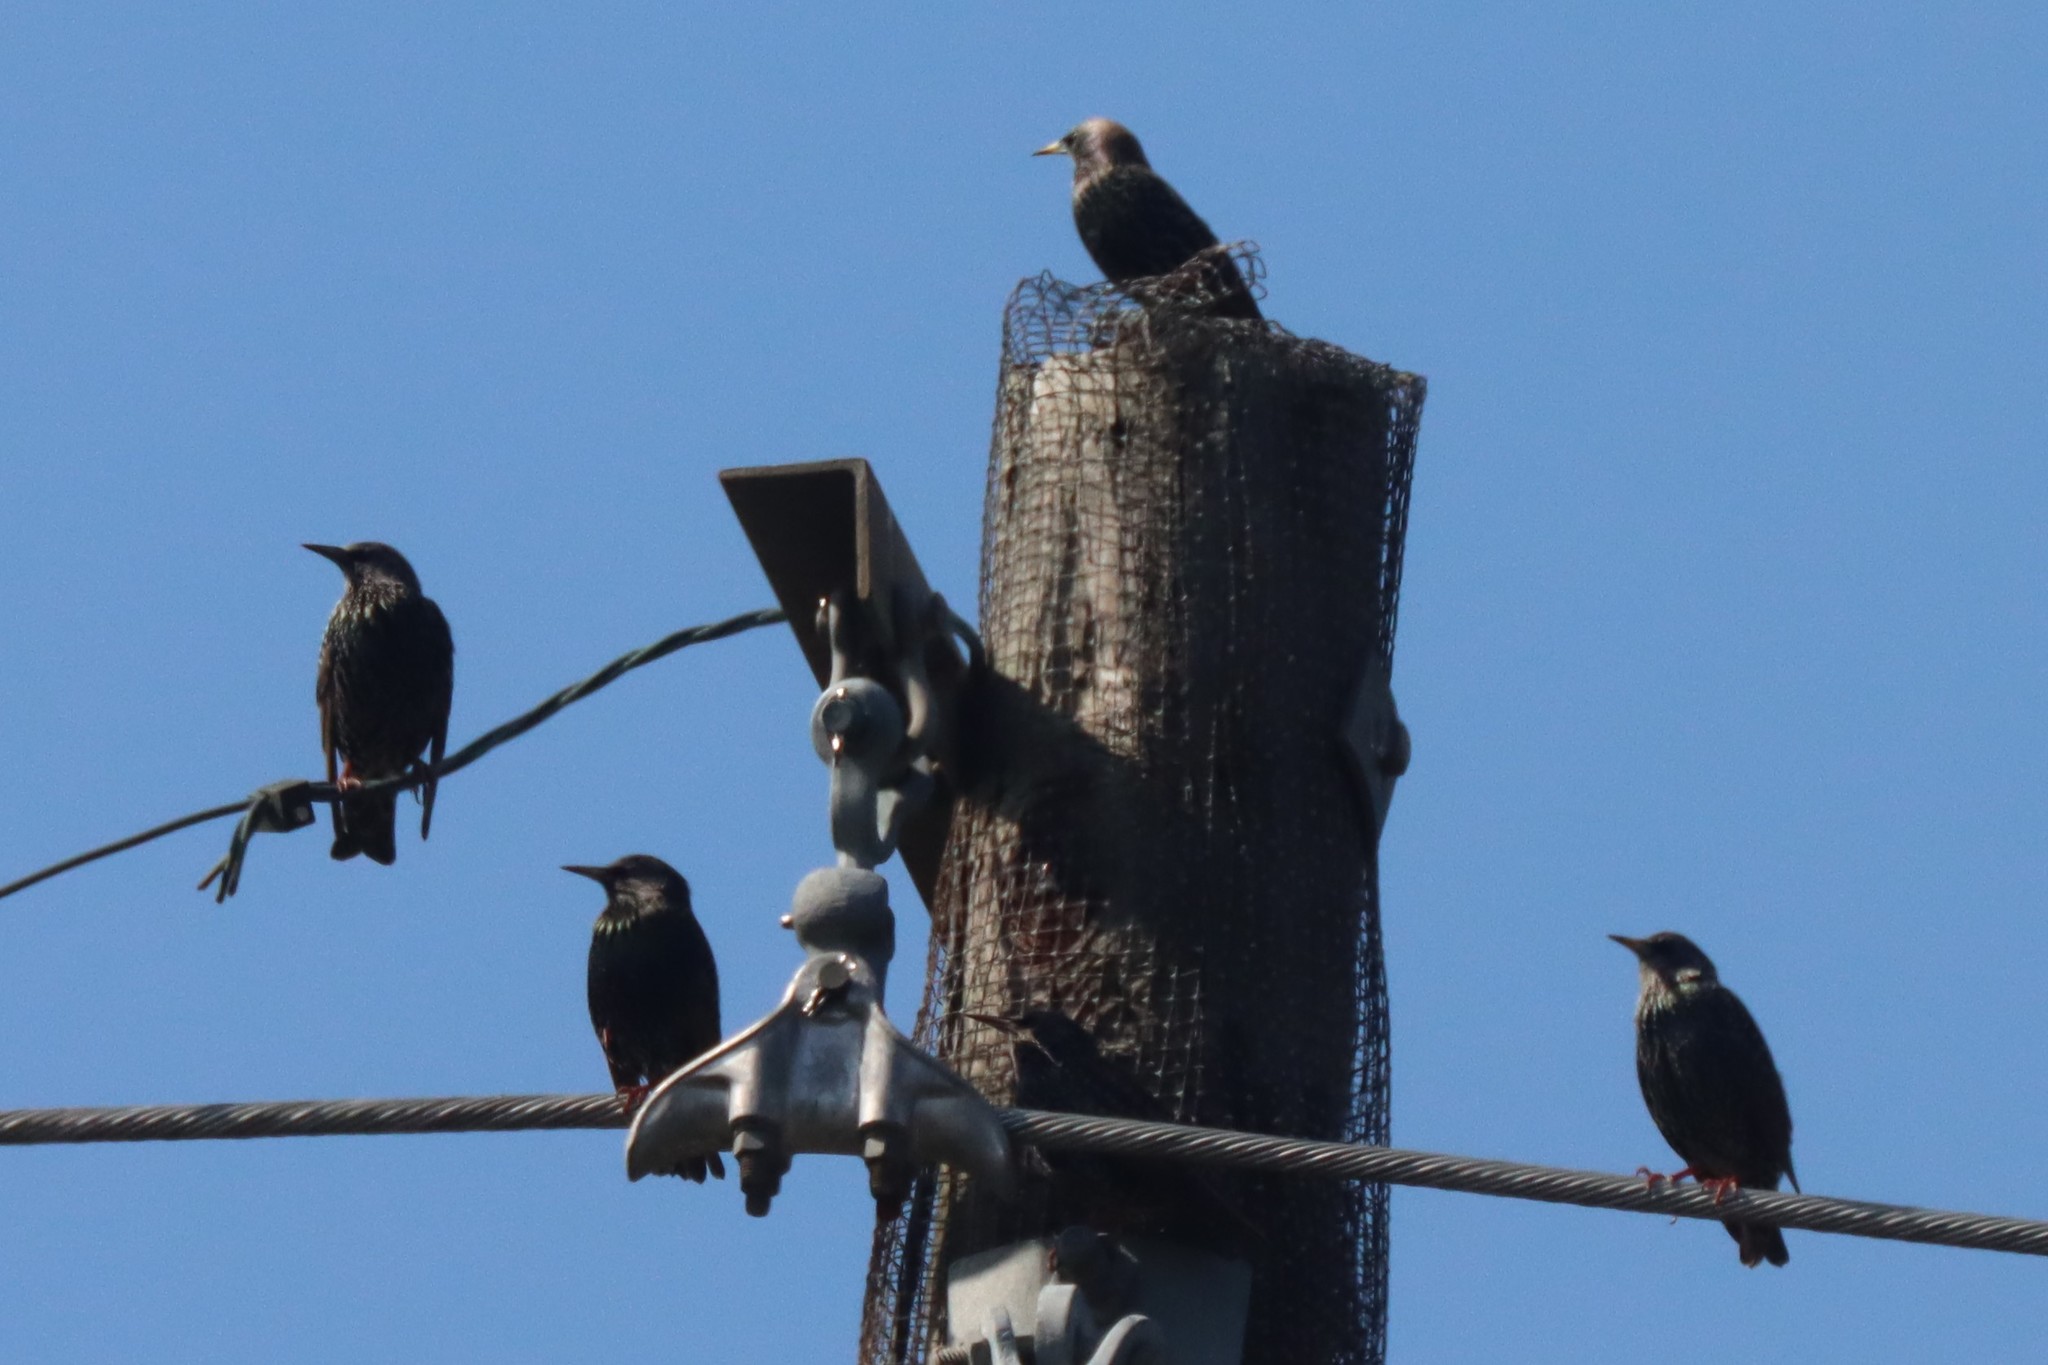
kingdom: Animalia
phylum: Chordata
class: Aves
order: Passeriformes
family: Sturnidae
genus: Sturnus
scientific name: Sturnus vulgaris
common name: Common starling
